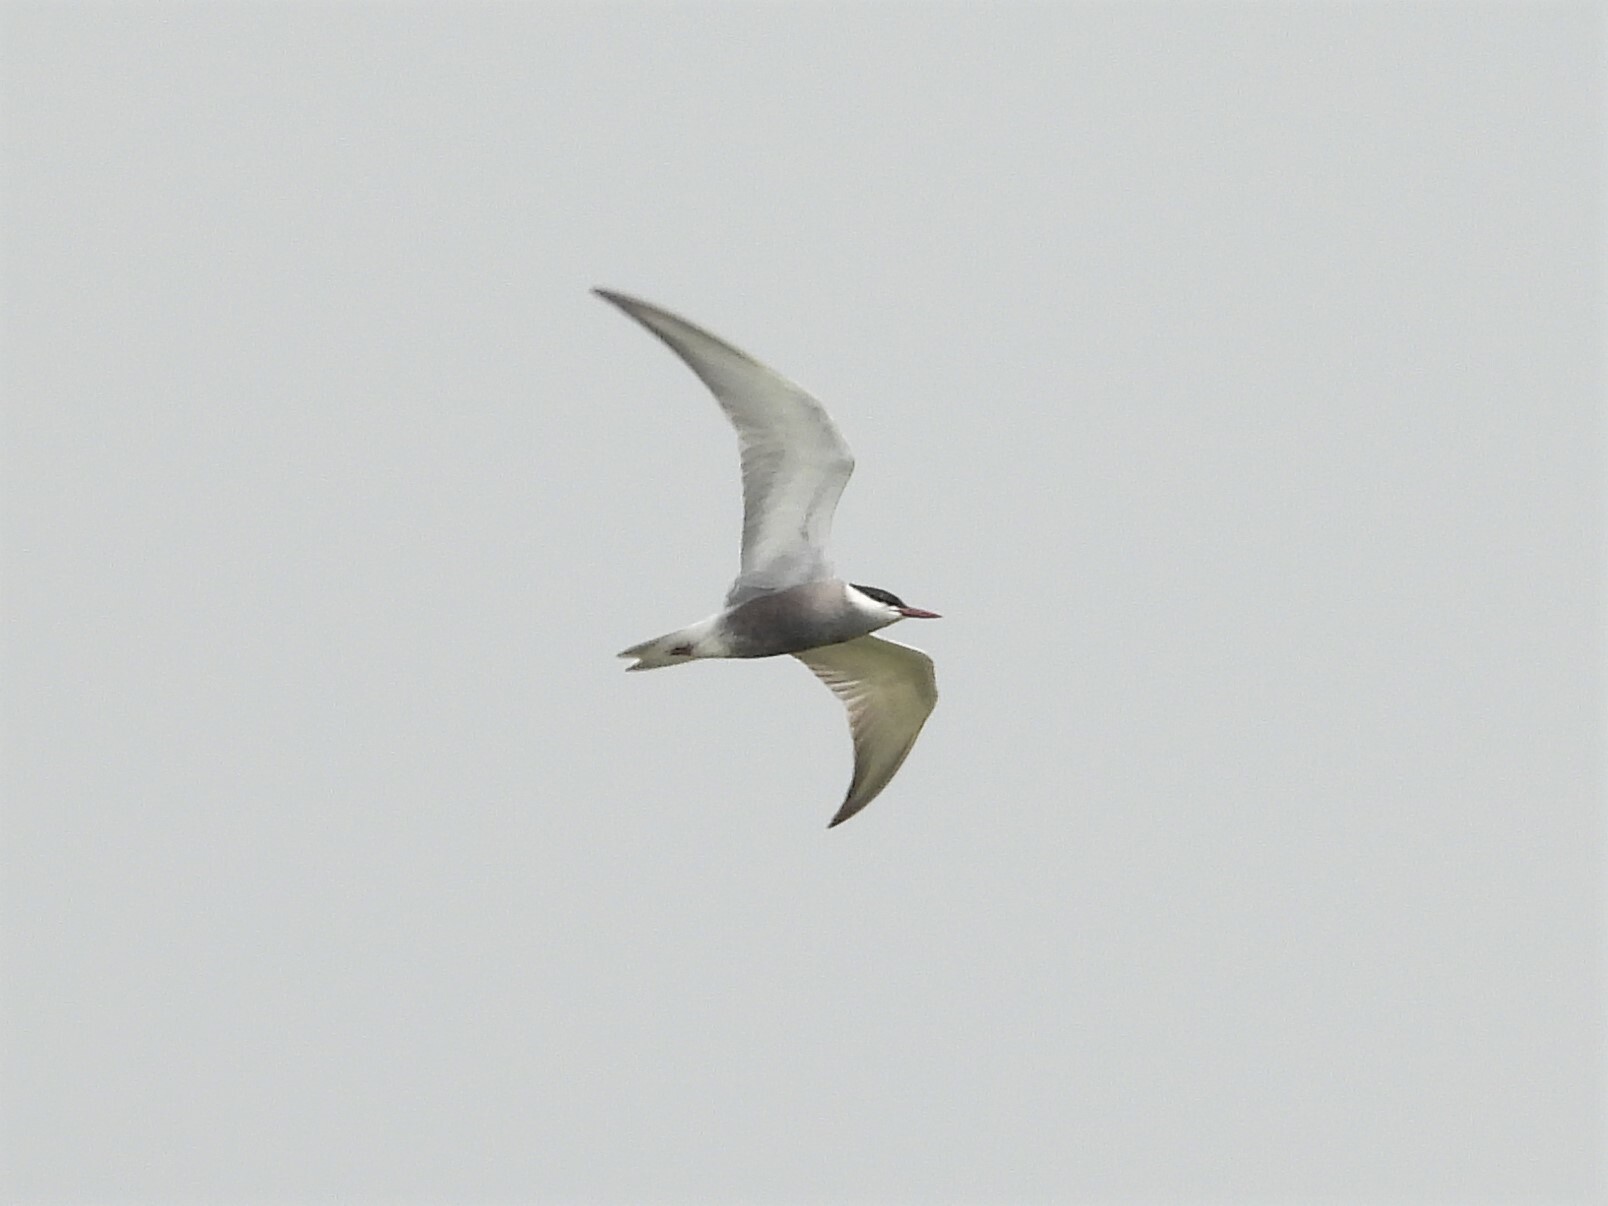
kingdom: Animalia
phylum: Chordata
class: Aves
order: Charadriiformes
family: Laridae
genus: Chlidonias
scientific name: Chlidonias hybrida
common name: Whiskered tern
